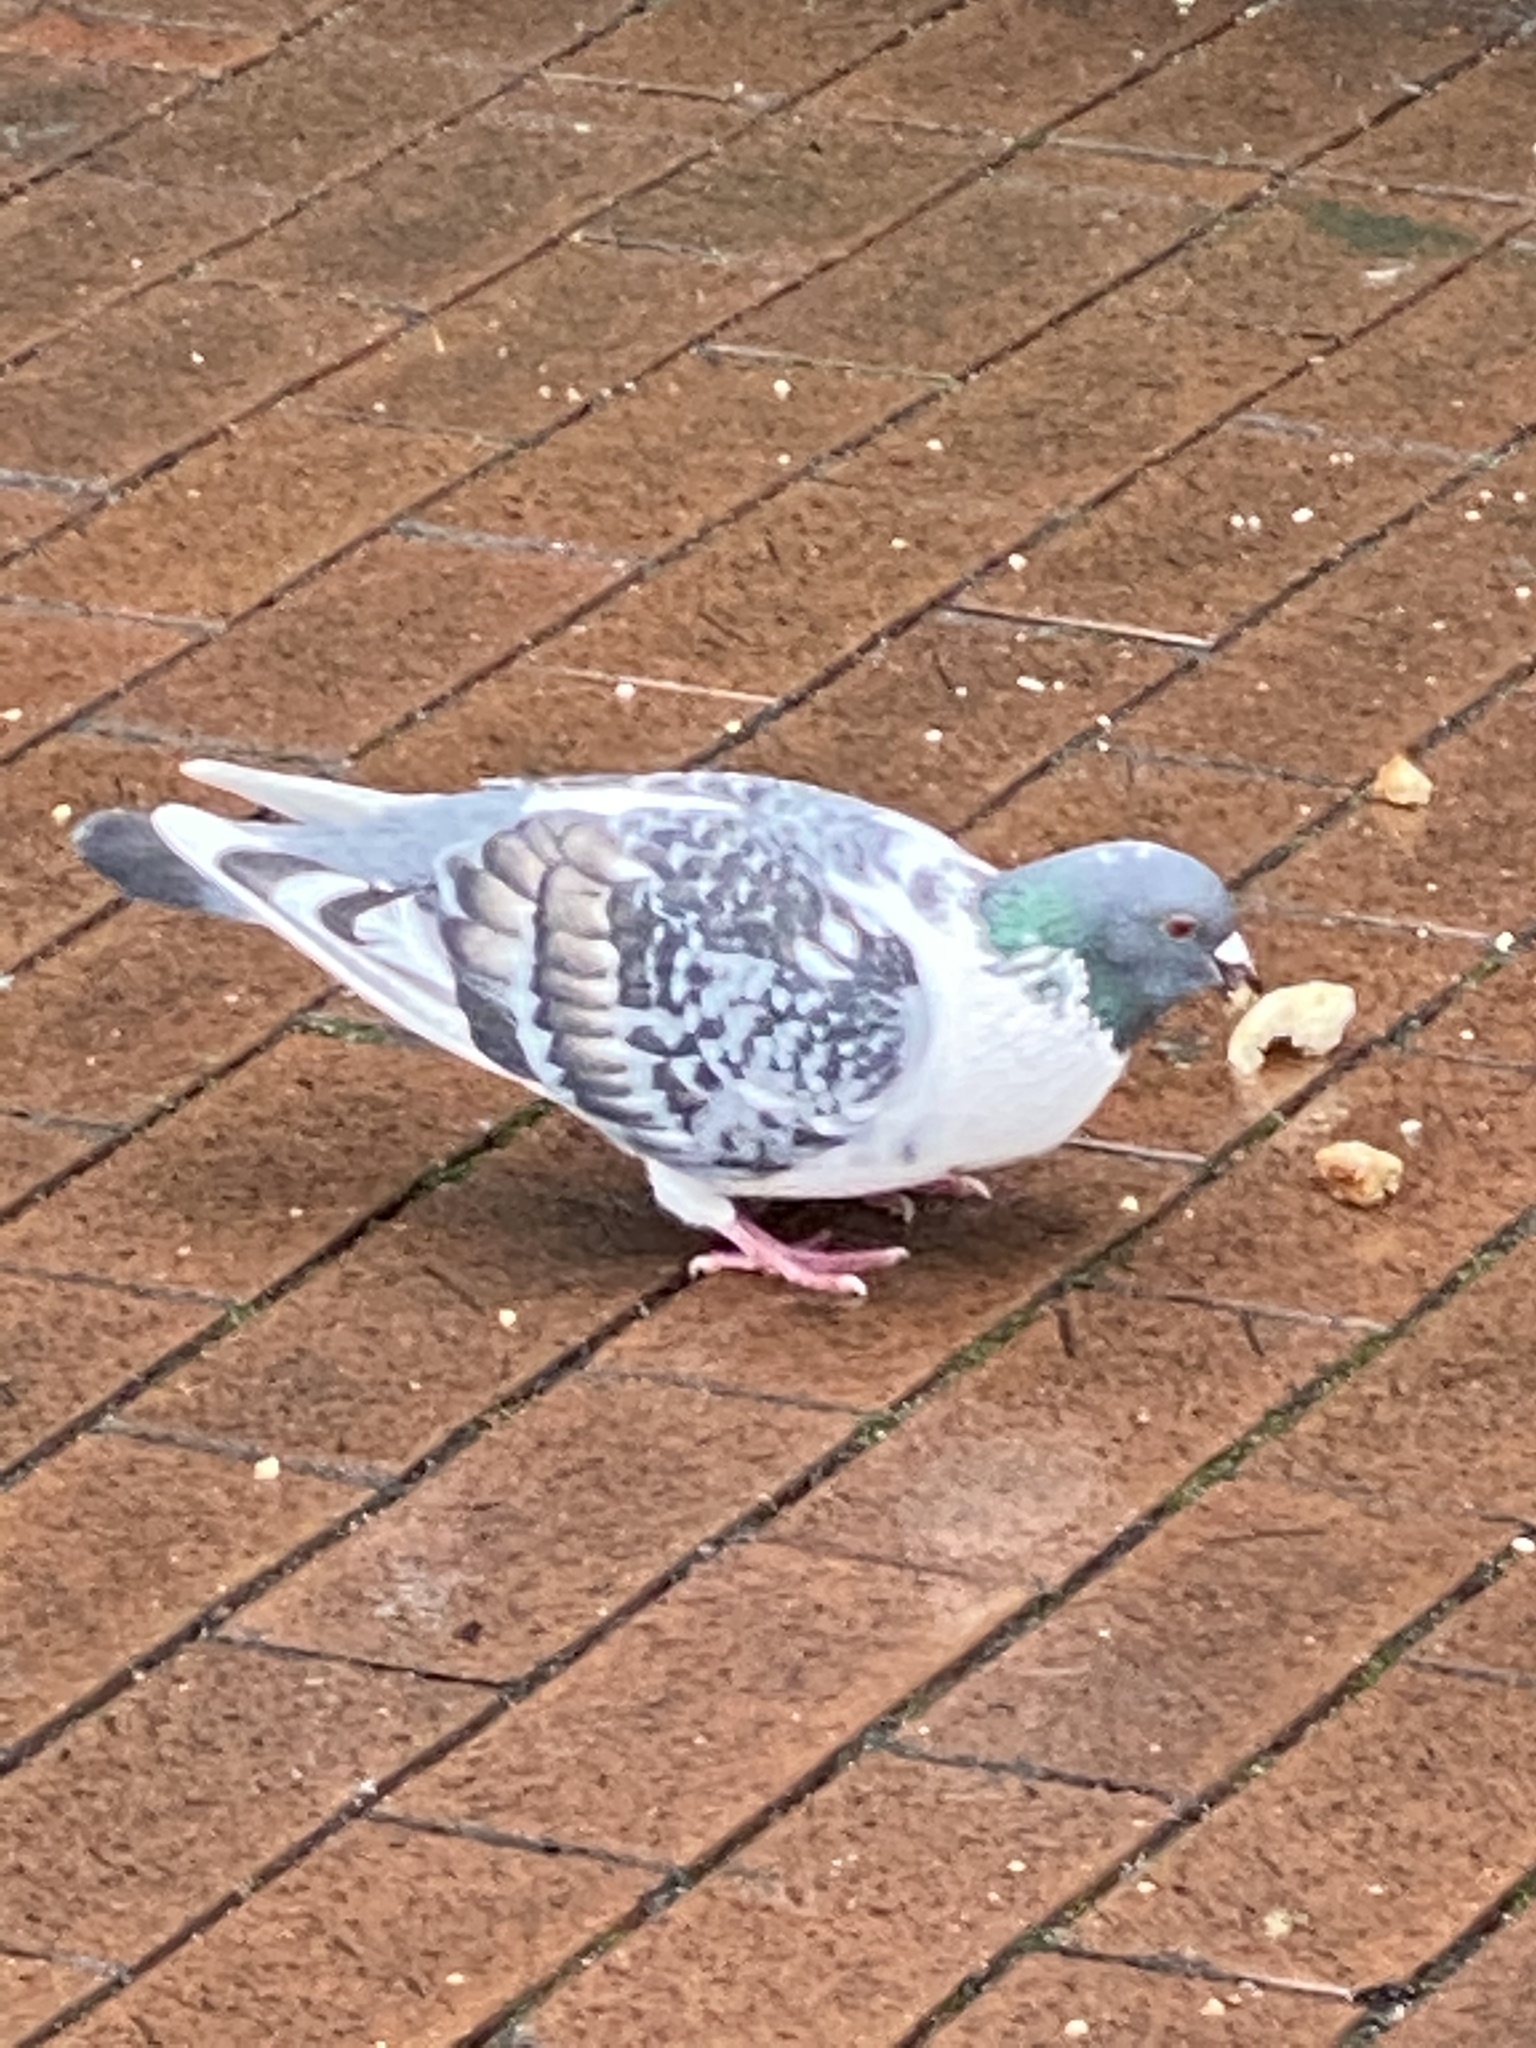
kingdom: Animalia
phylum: Chordata
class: Aves
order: Columbiformes
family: Columbidae
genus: Columba
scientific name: Columba livia
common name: Rock pigeon
